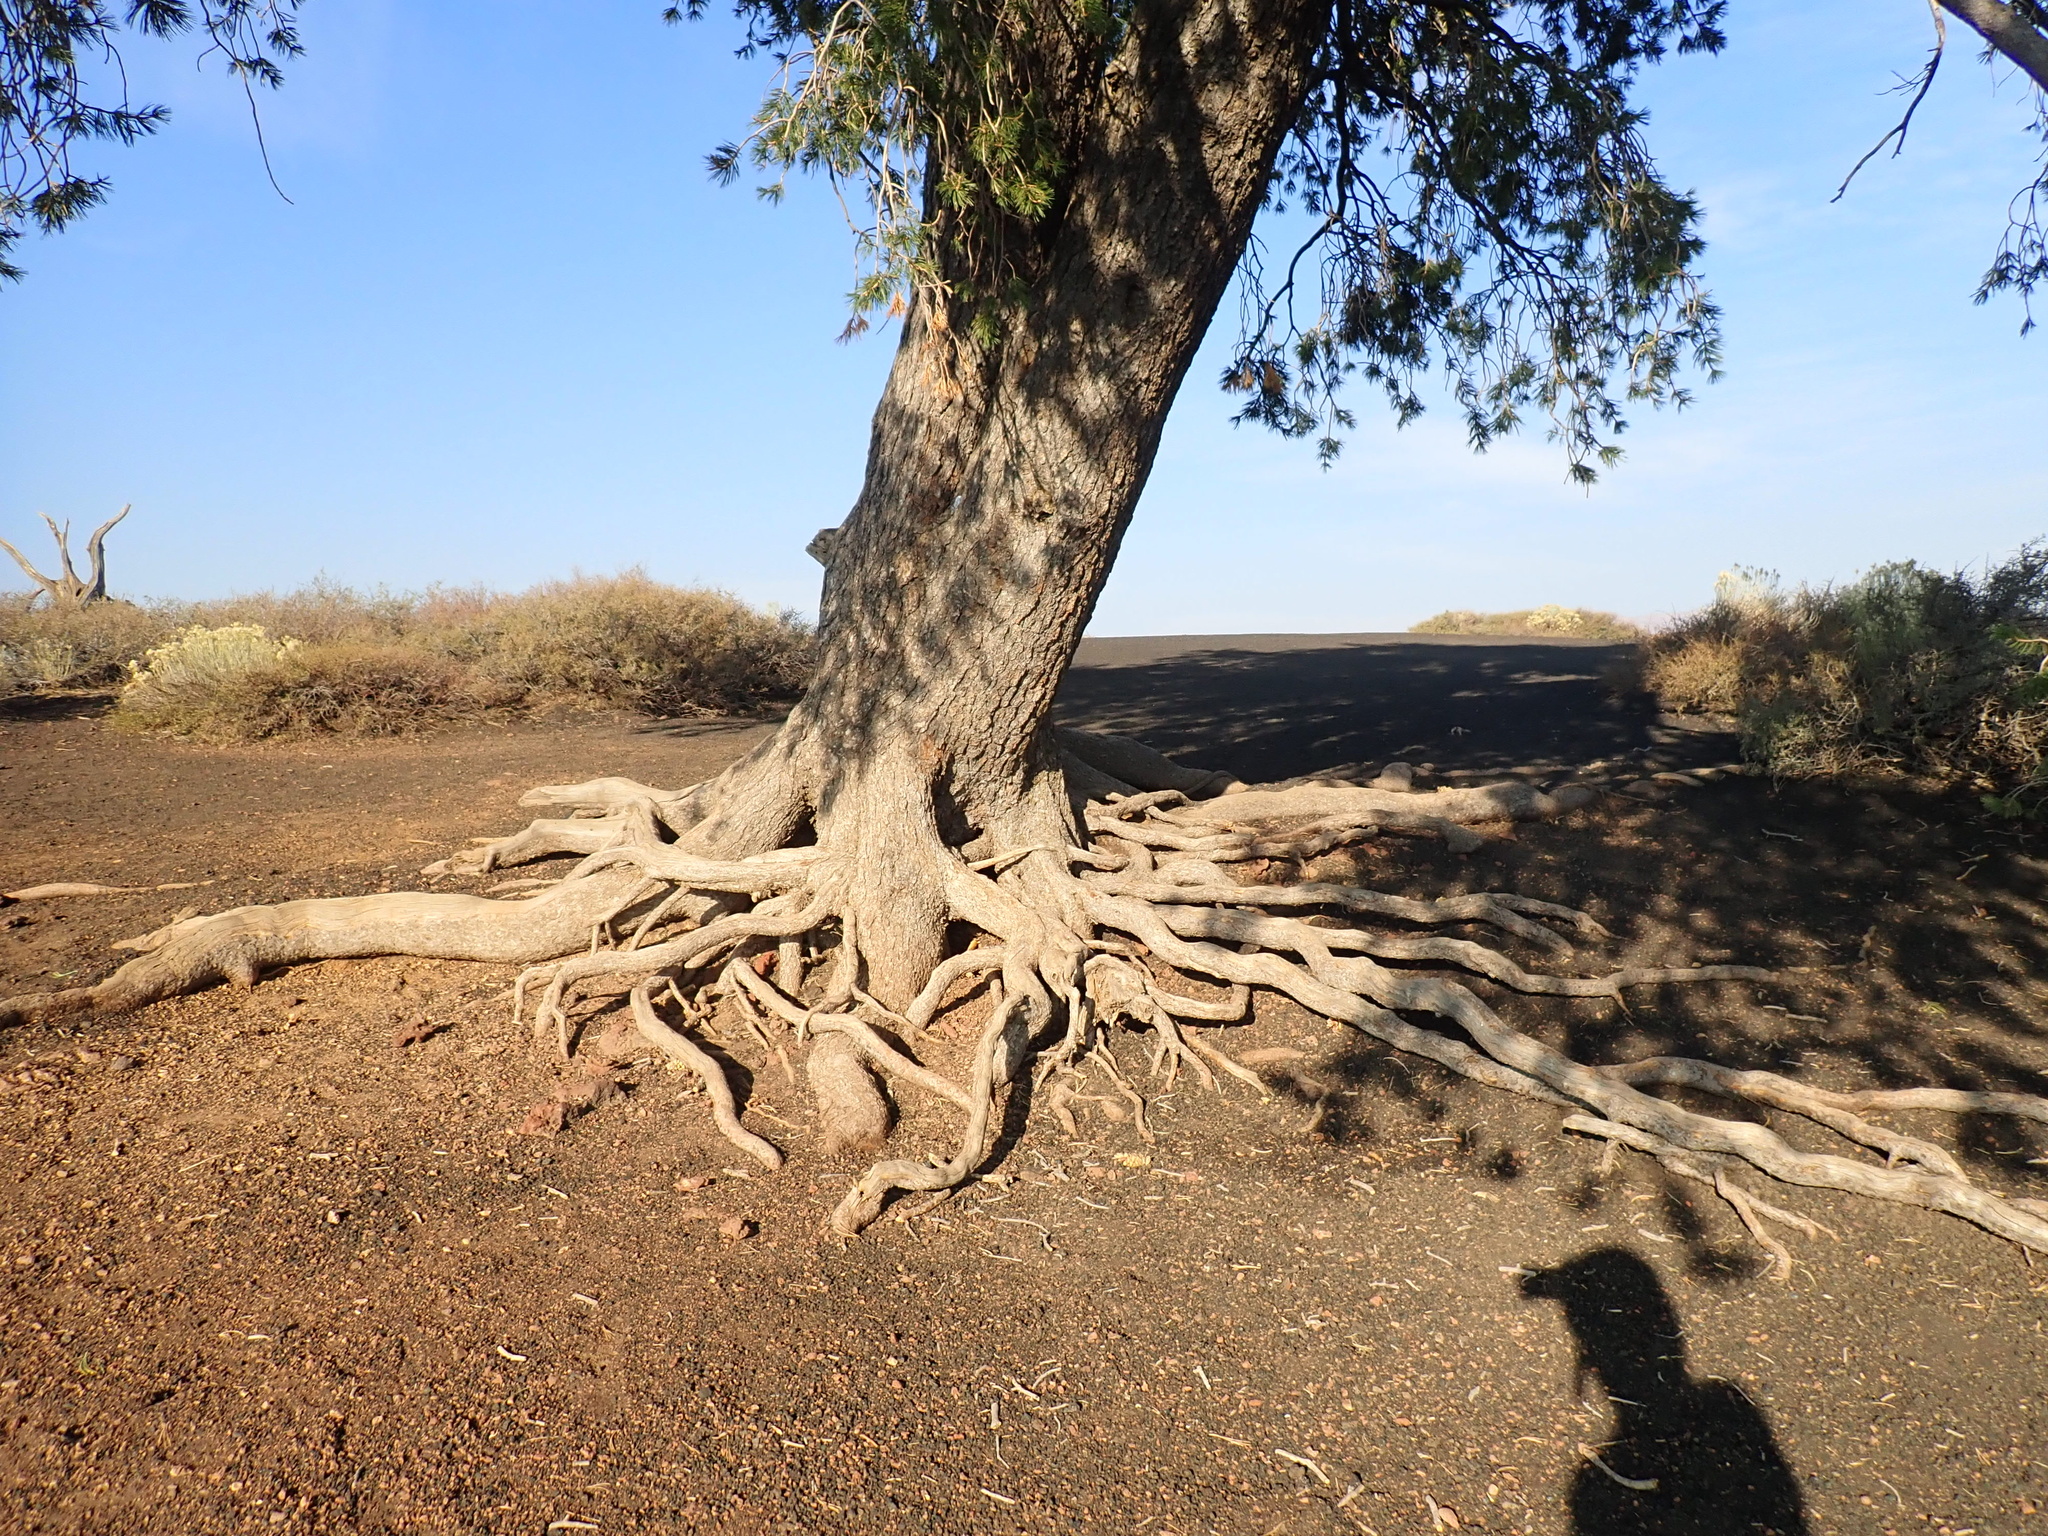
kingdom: Plantae
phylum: Tracheophyta
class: Pinopsida
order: Pinales
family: Pinaceae
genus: Pinus
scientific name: Pinus flexilis
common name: Limber pine
